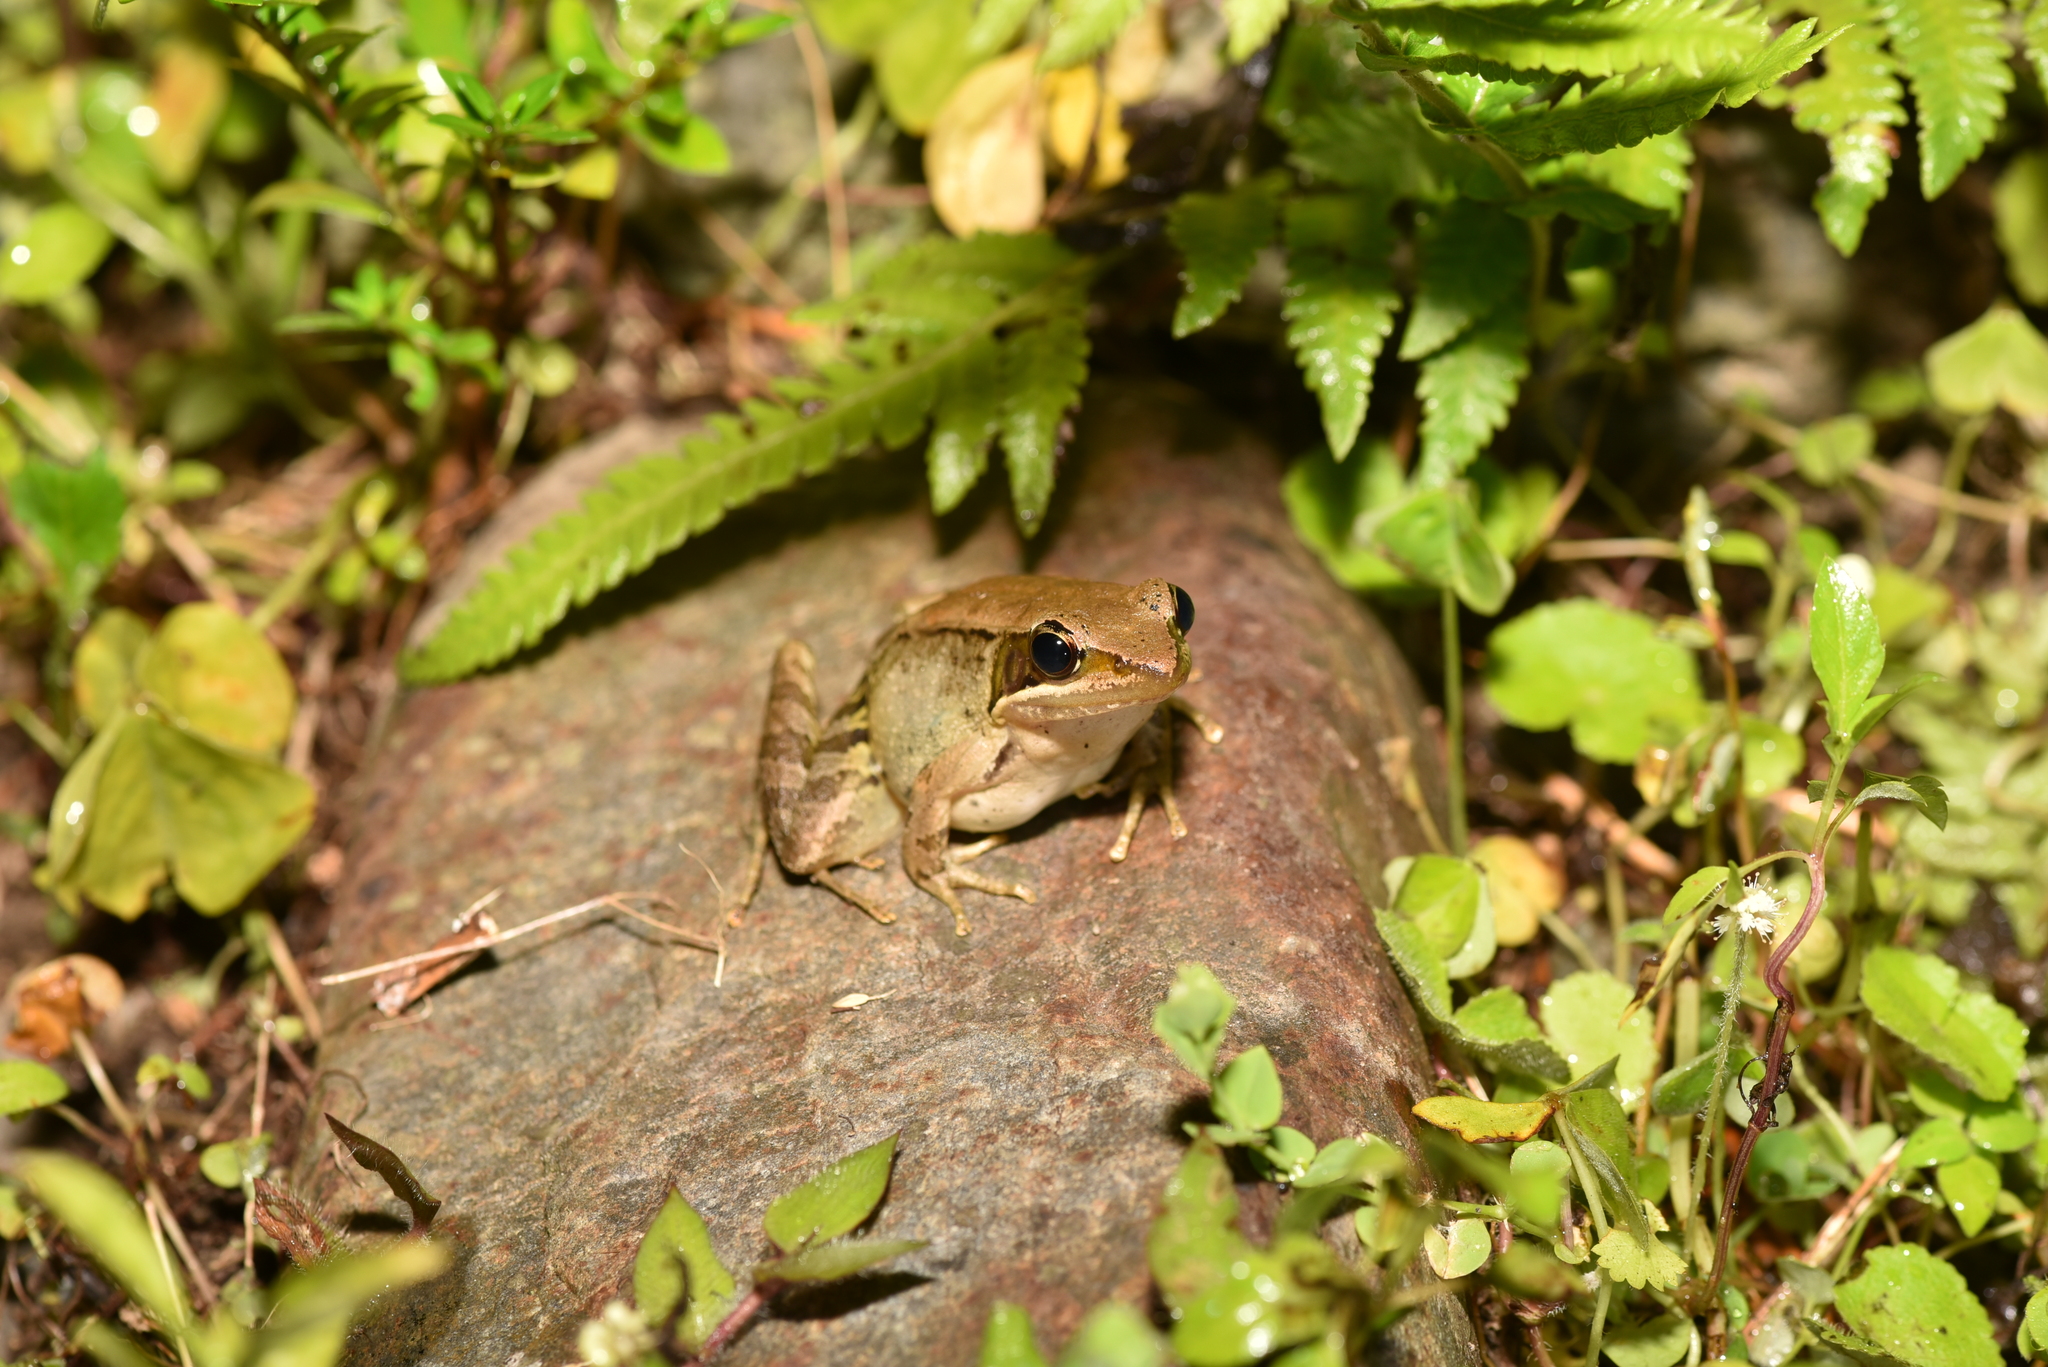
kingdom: Animalia
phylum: Chordata
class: Amphibia
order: Anura
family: Ranidae
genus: Nidirana
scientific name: Nidirana adenopleura
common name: Olive frog
